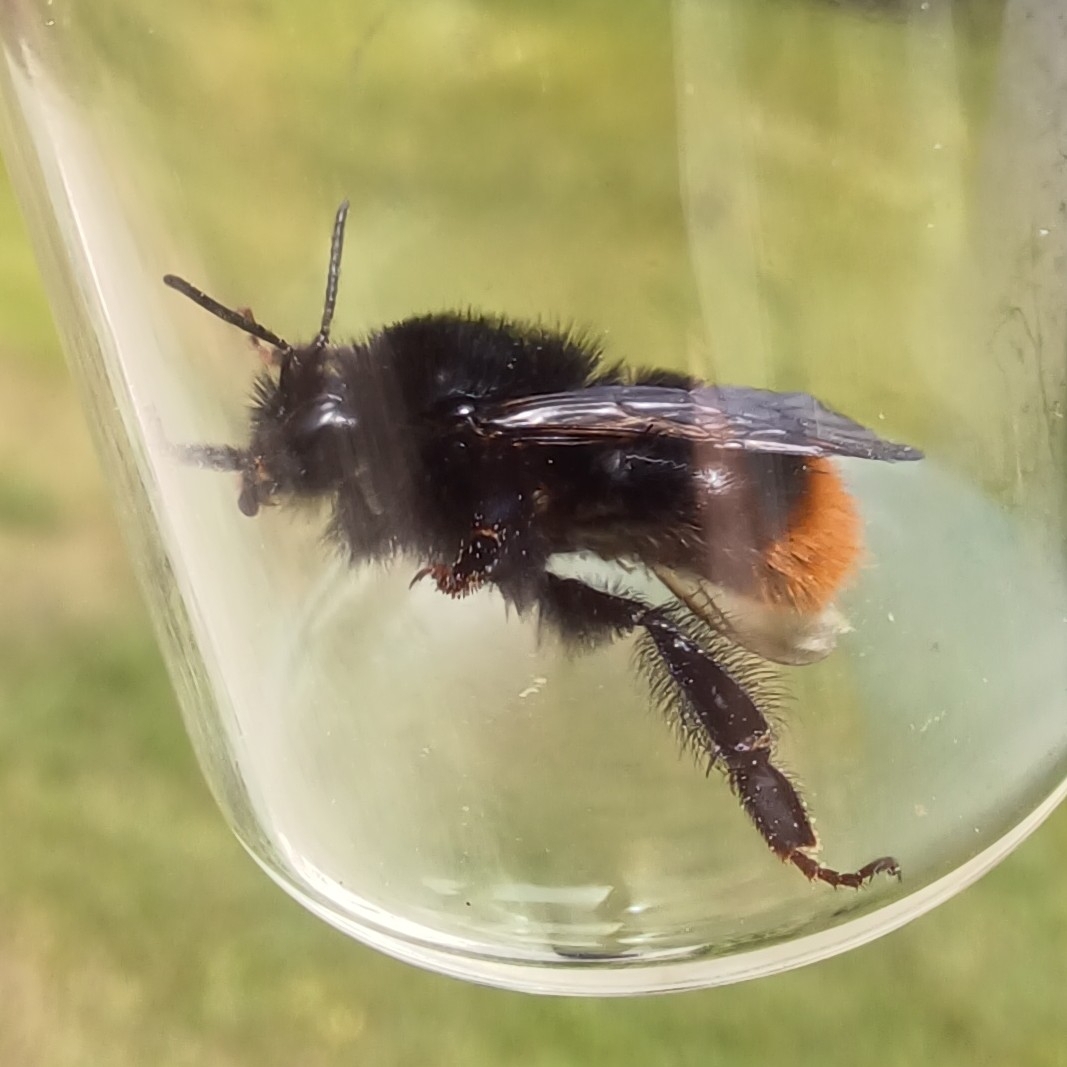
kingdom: Animalia
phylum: Arthropoda
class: Insecta
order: Hymenoptera
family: Apidae
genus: Bombus
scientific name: Bombus lapidarius
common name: Large red-tailed humble-bee
